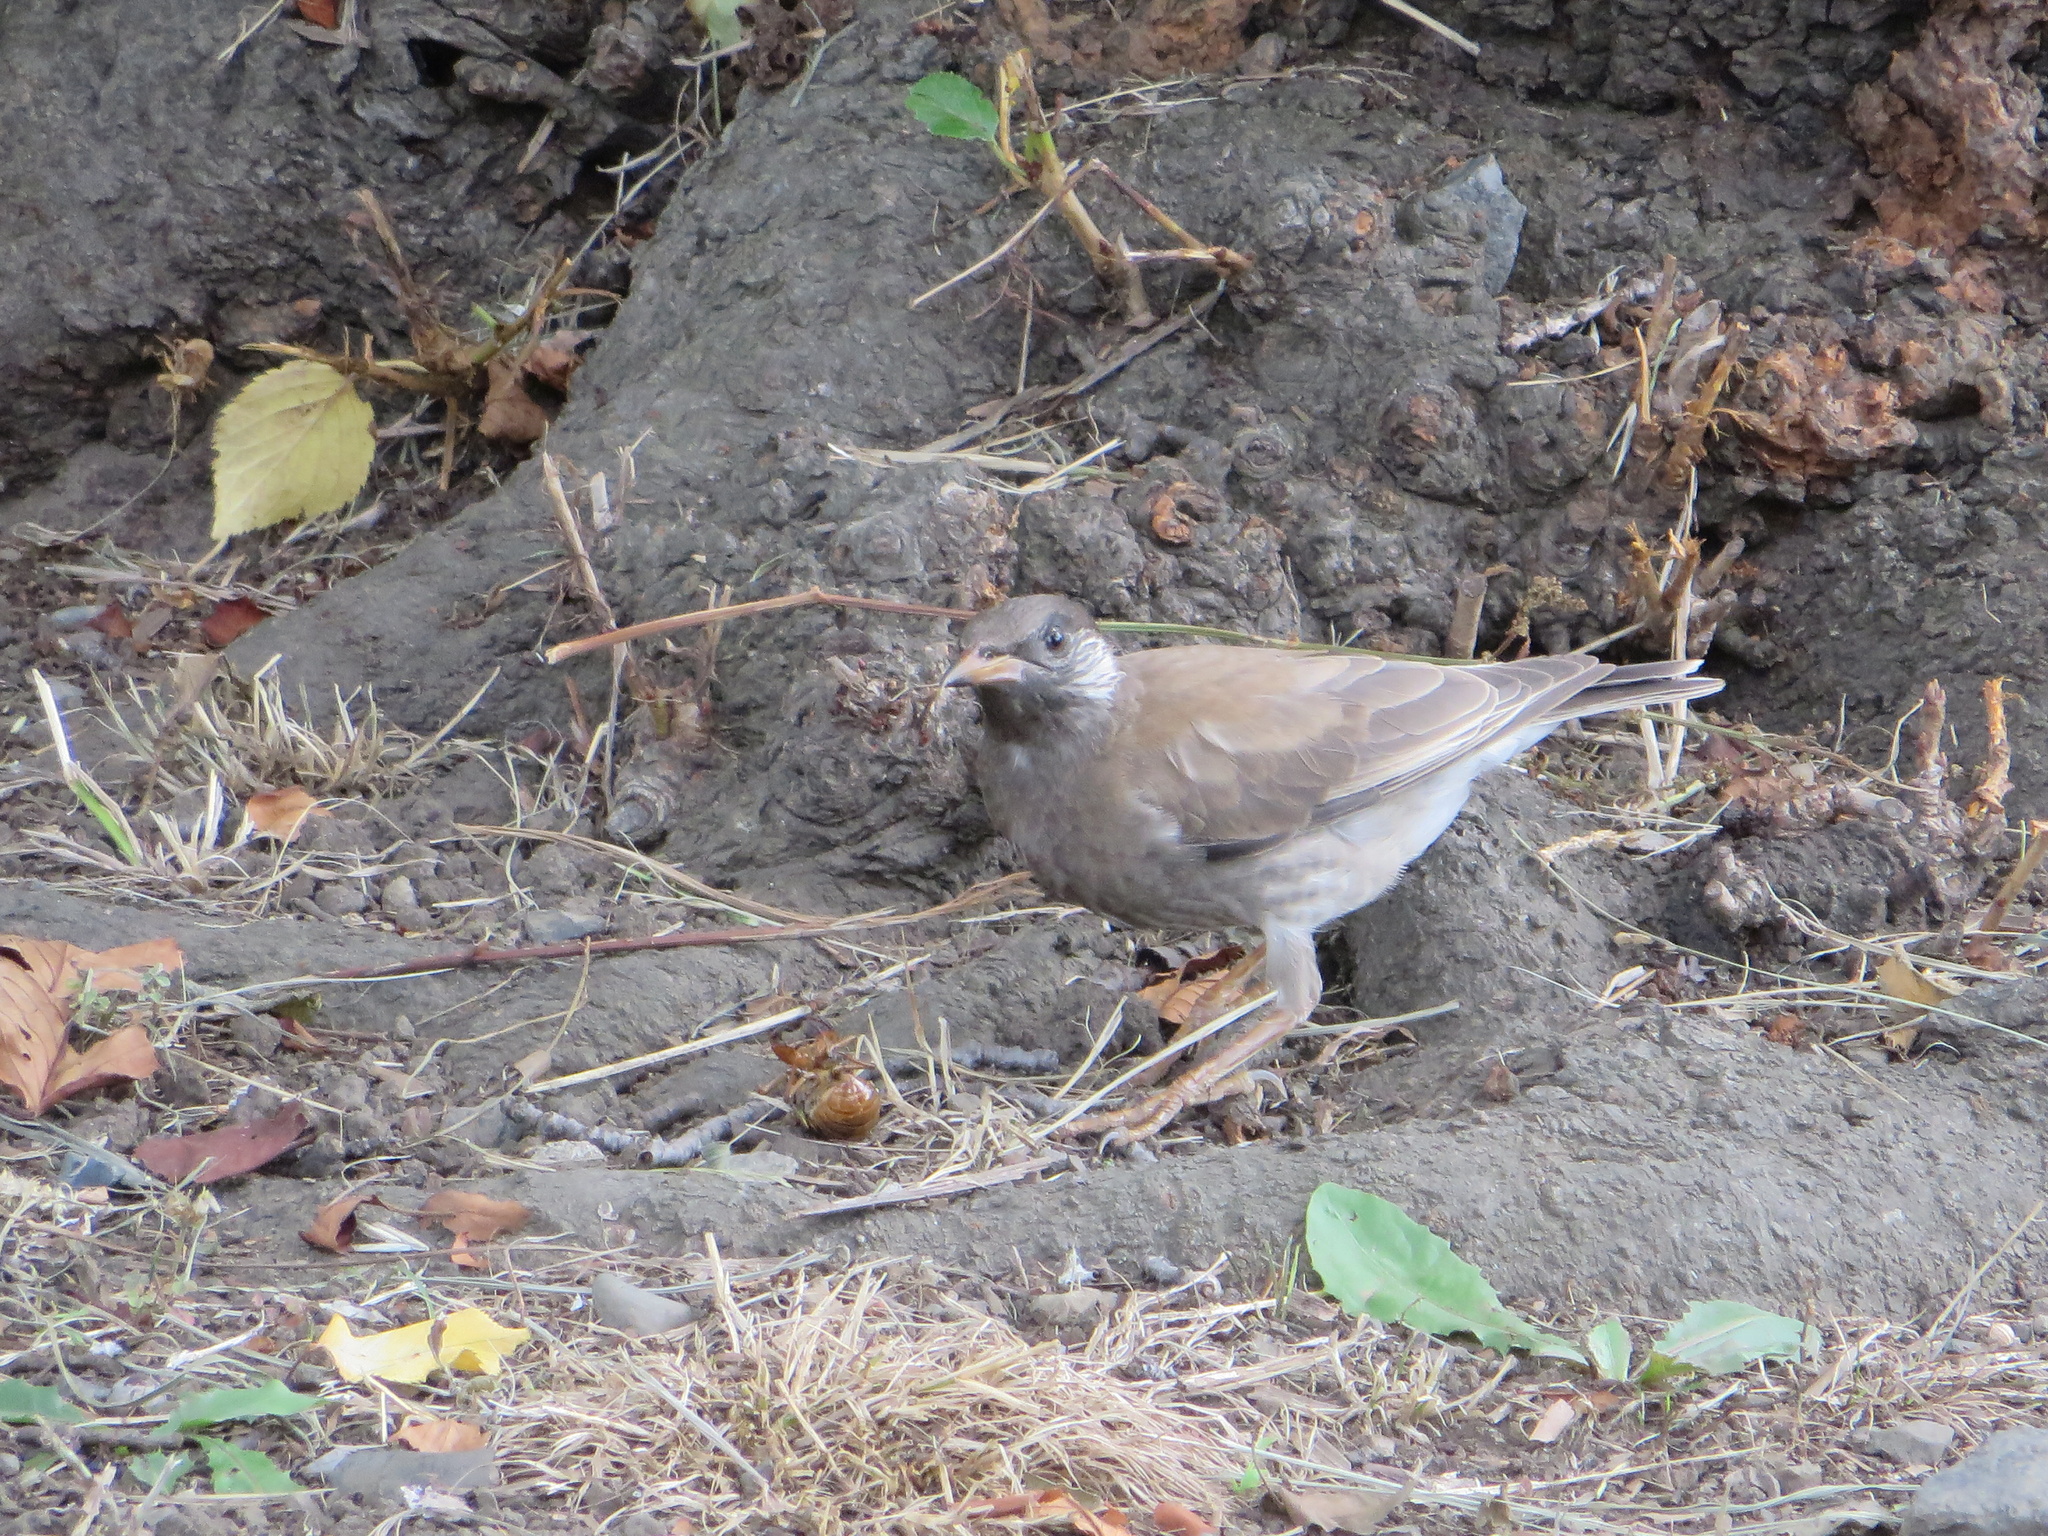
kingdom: Animalia
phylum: Chordata
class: Aves
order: Passeriformes
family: Sturnidae
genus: Spodiopsar
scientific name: Spodiopsar cineraceus
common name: White-cheeked starling
